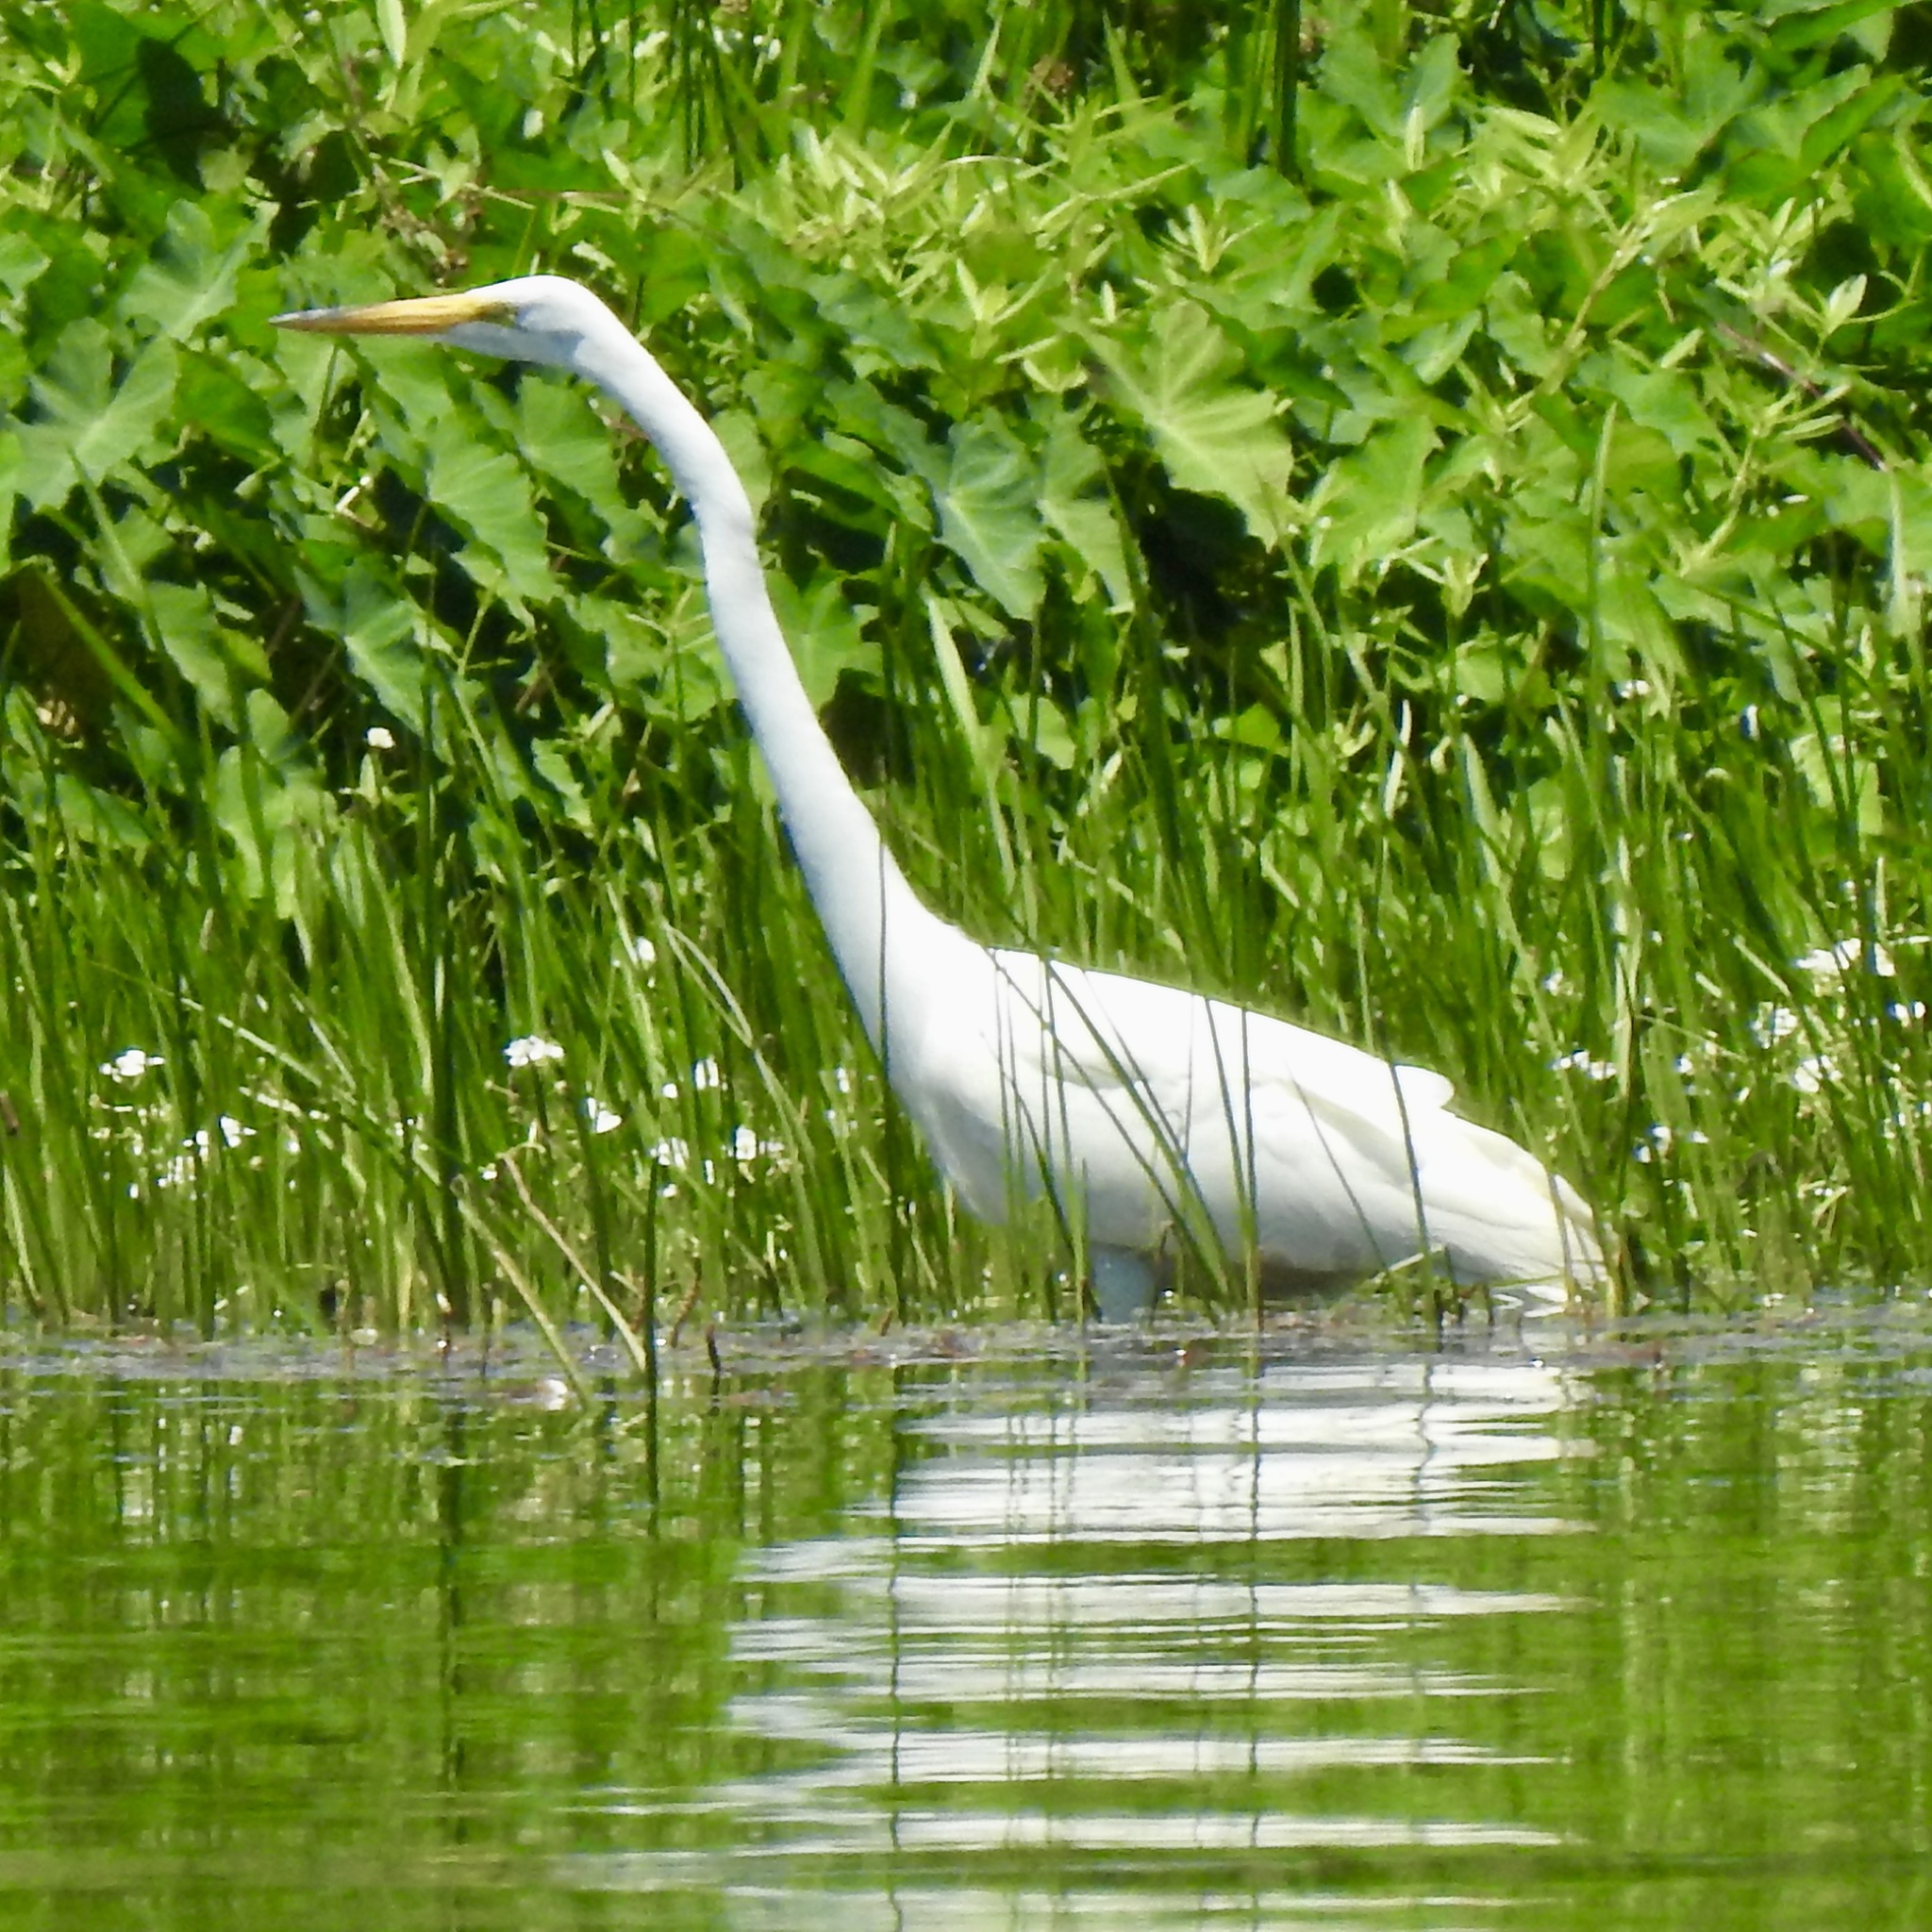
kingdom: Animalia
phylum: Chordata
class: Aves
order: Pelecaniformes
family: Ardeidae
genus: Ardea
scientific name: Ardea alba
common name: Great egret
